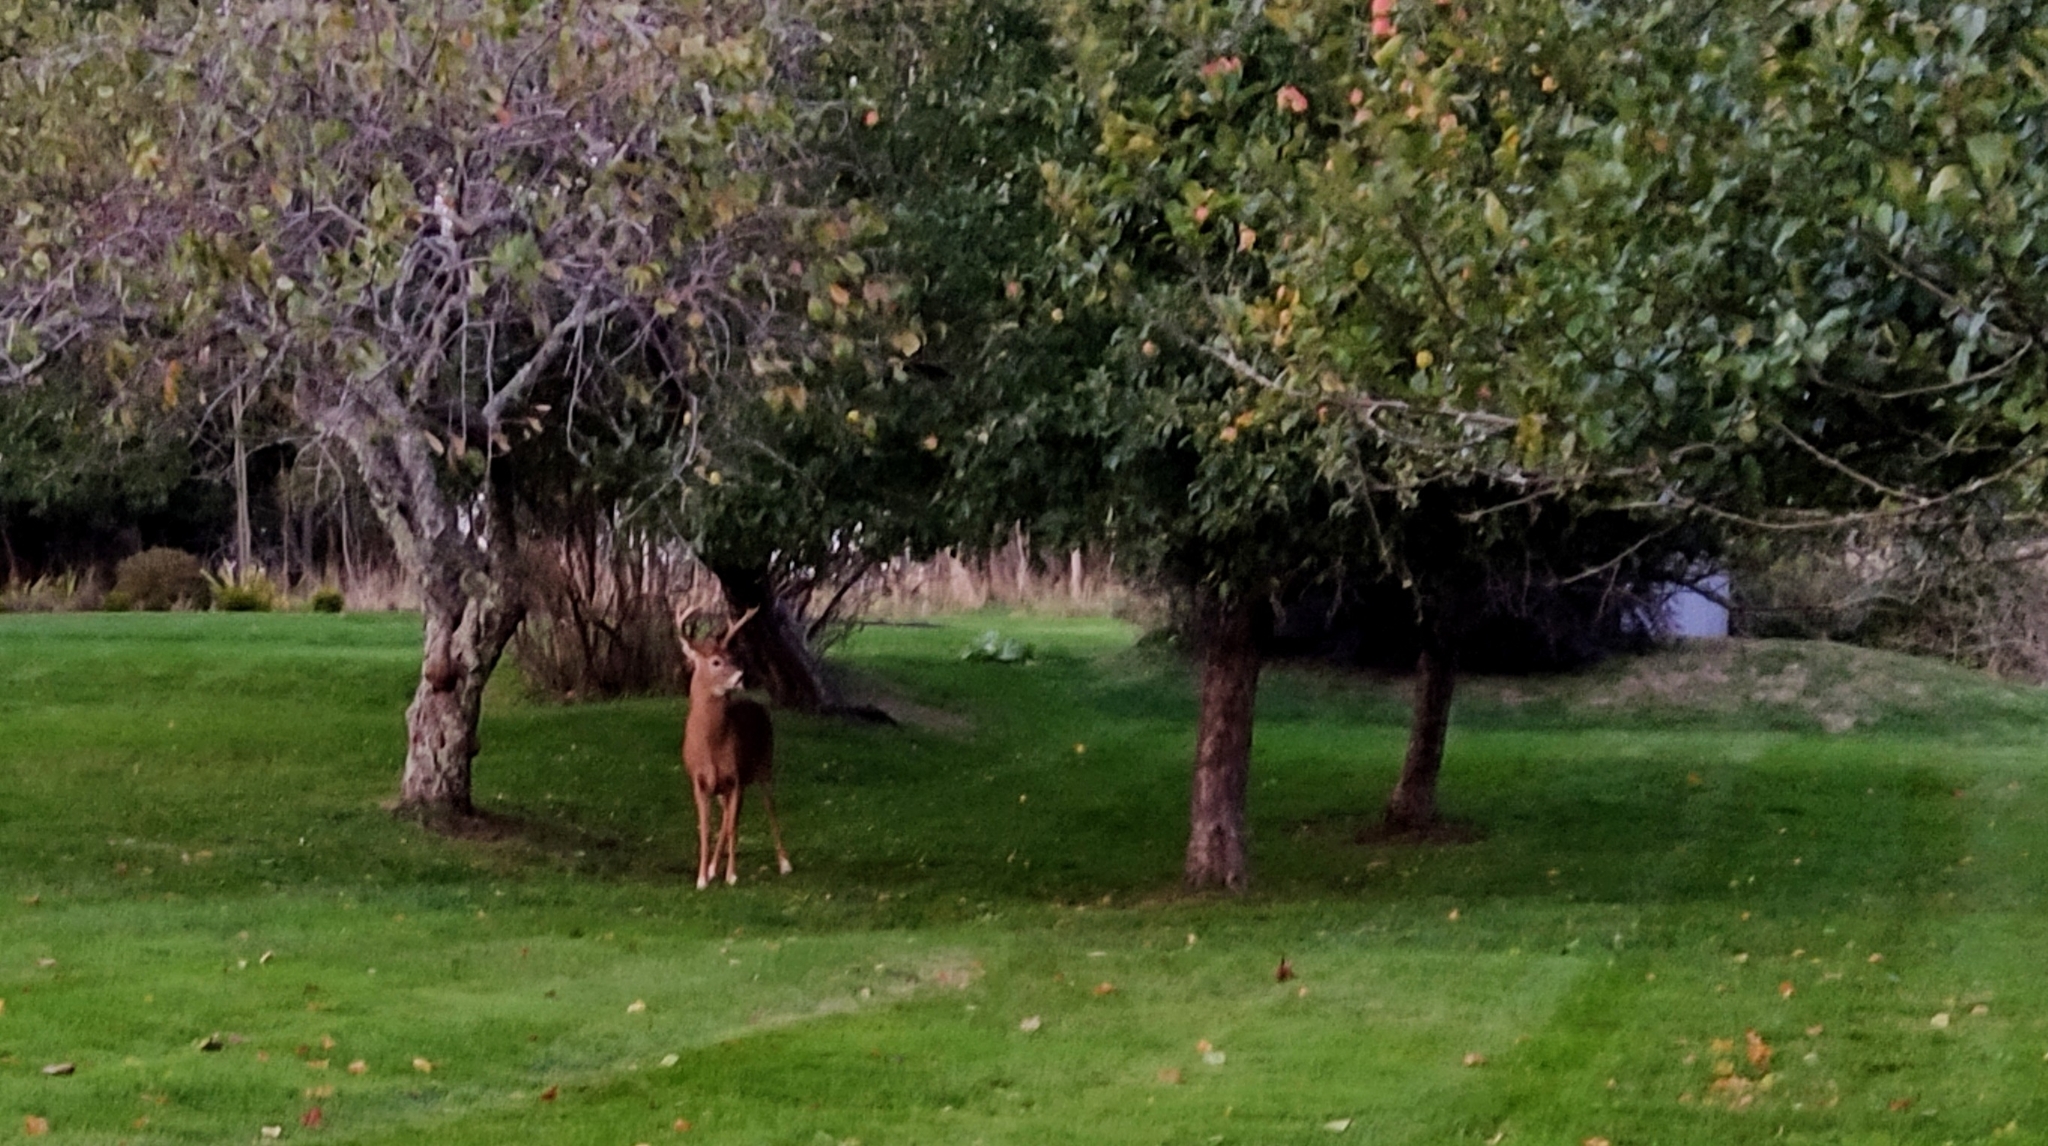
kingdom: Animalia
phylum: Chordata
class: Mammalia
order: Artiodactyla
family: Cervidae
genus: Odocoileus
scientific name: Odocoileus virginianus
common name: White-tailed deer
